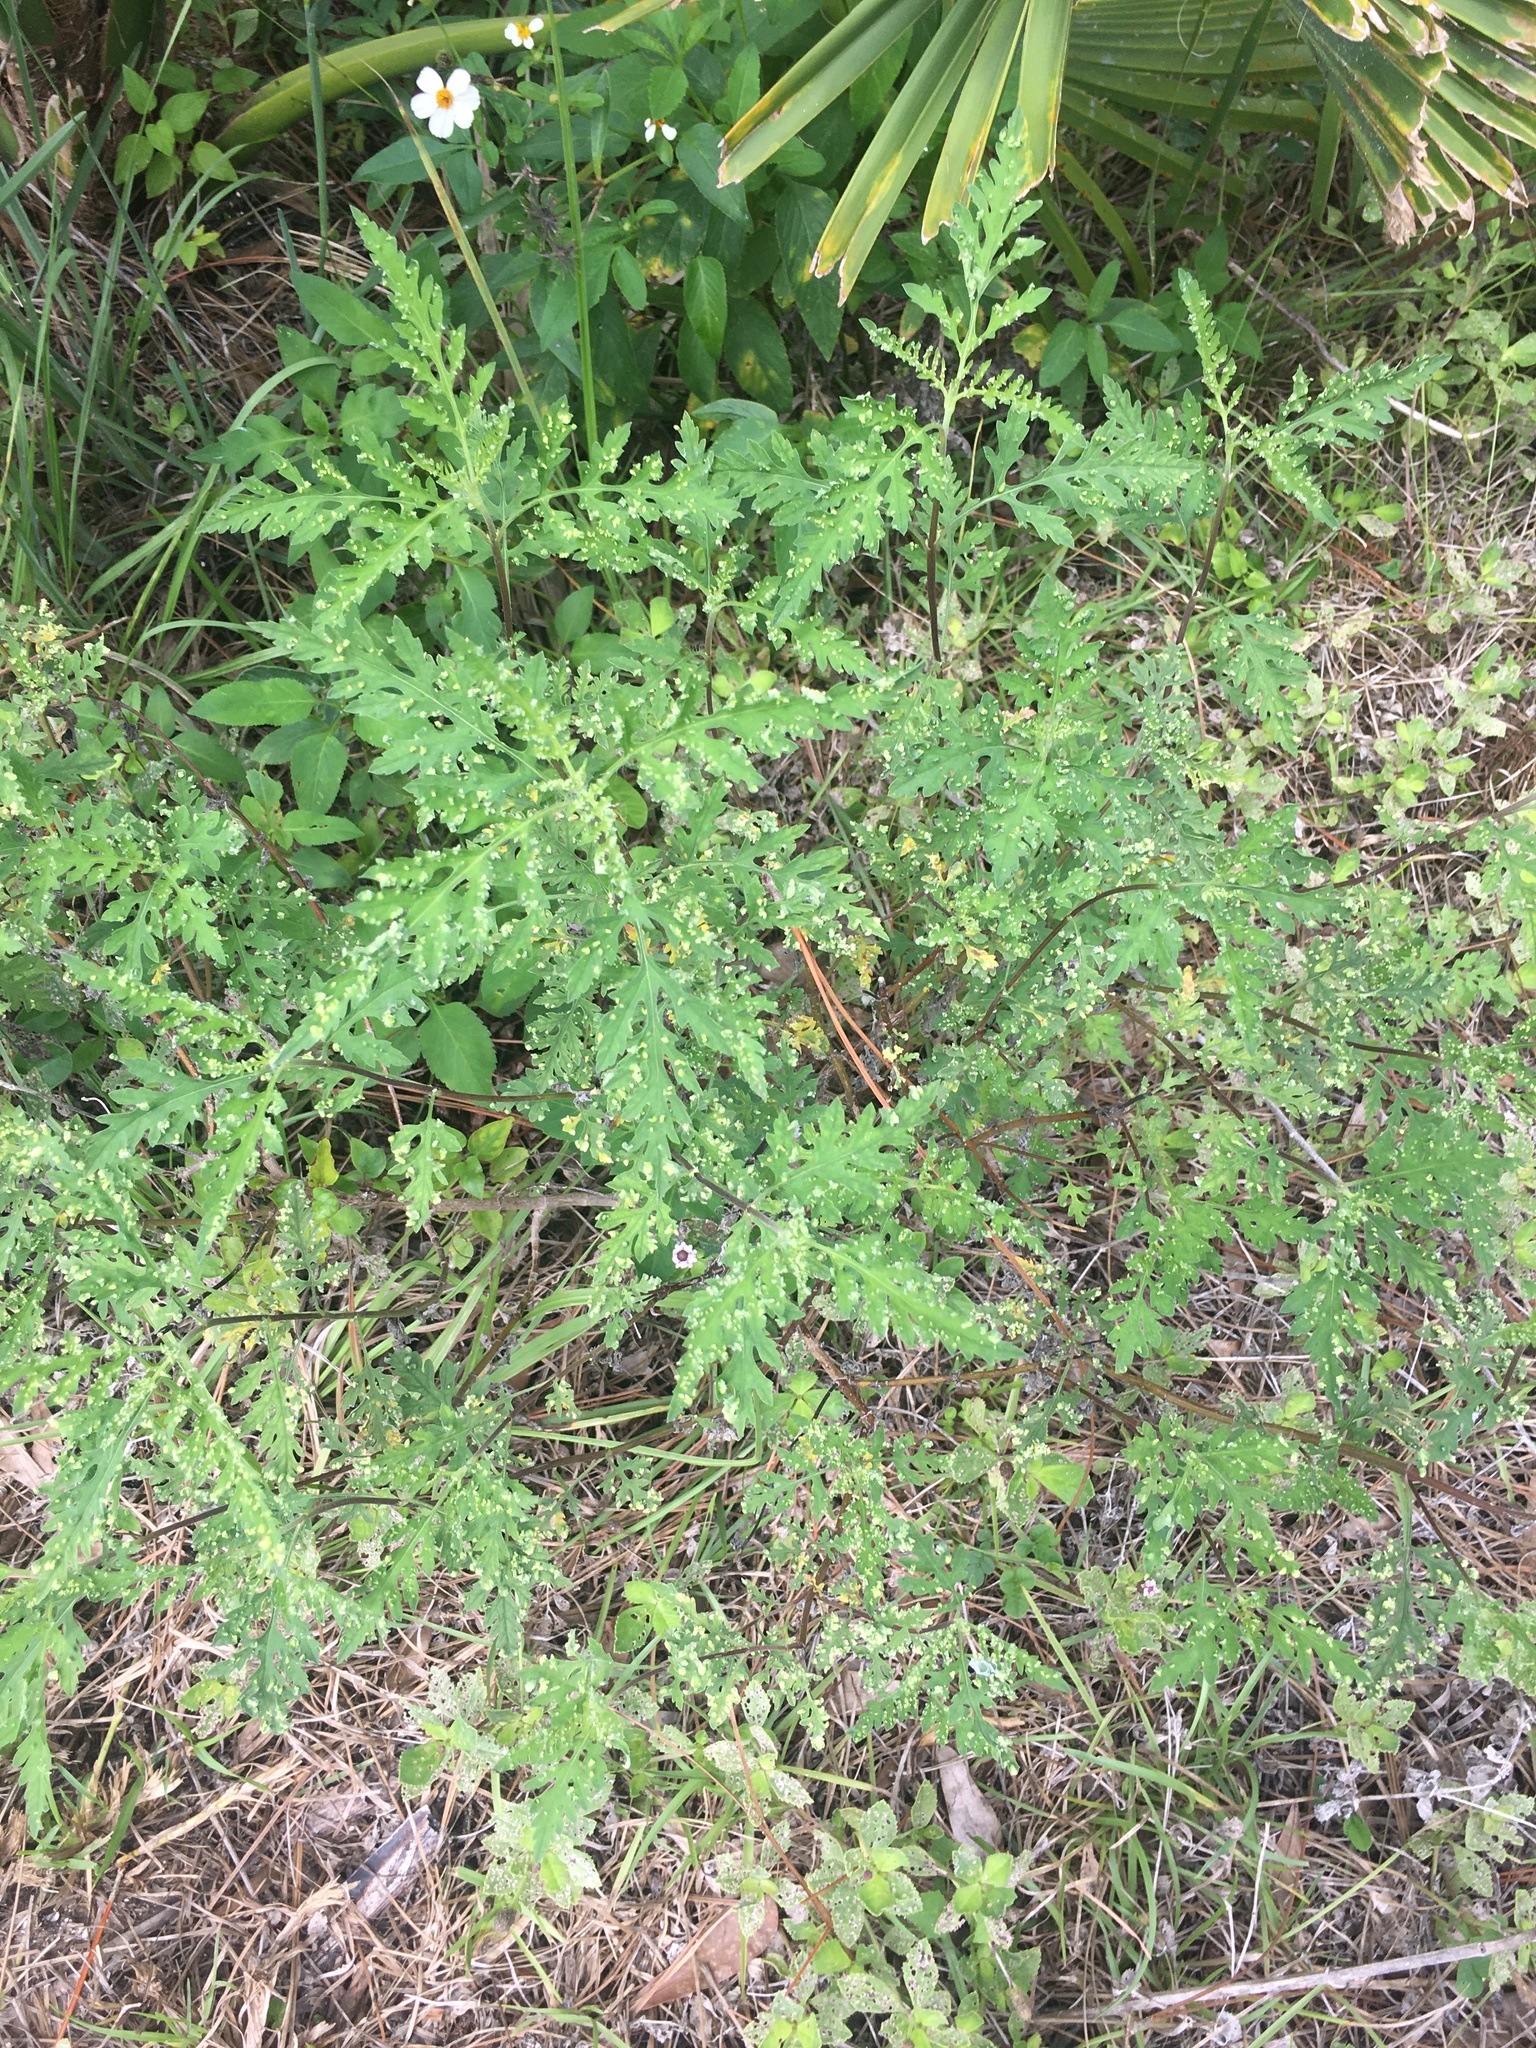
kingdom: Plantae
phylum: Tracheophyta
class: Magnoliopsida
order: Asterales
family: Asteraceae
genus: Ambrosia
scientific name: Ambrosia artemisiifolia
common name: Annual ragweed
